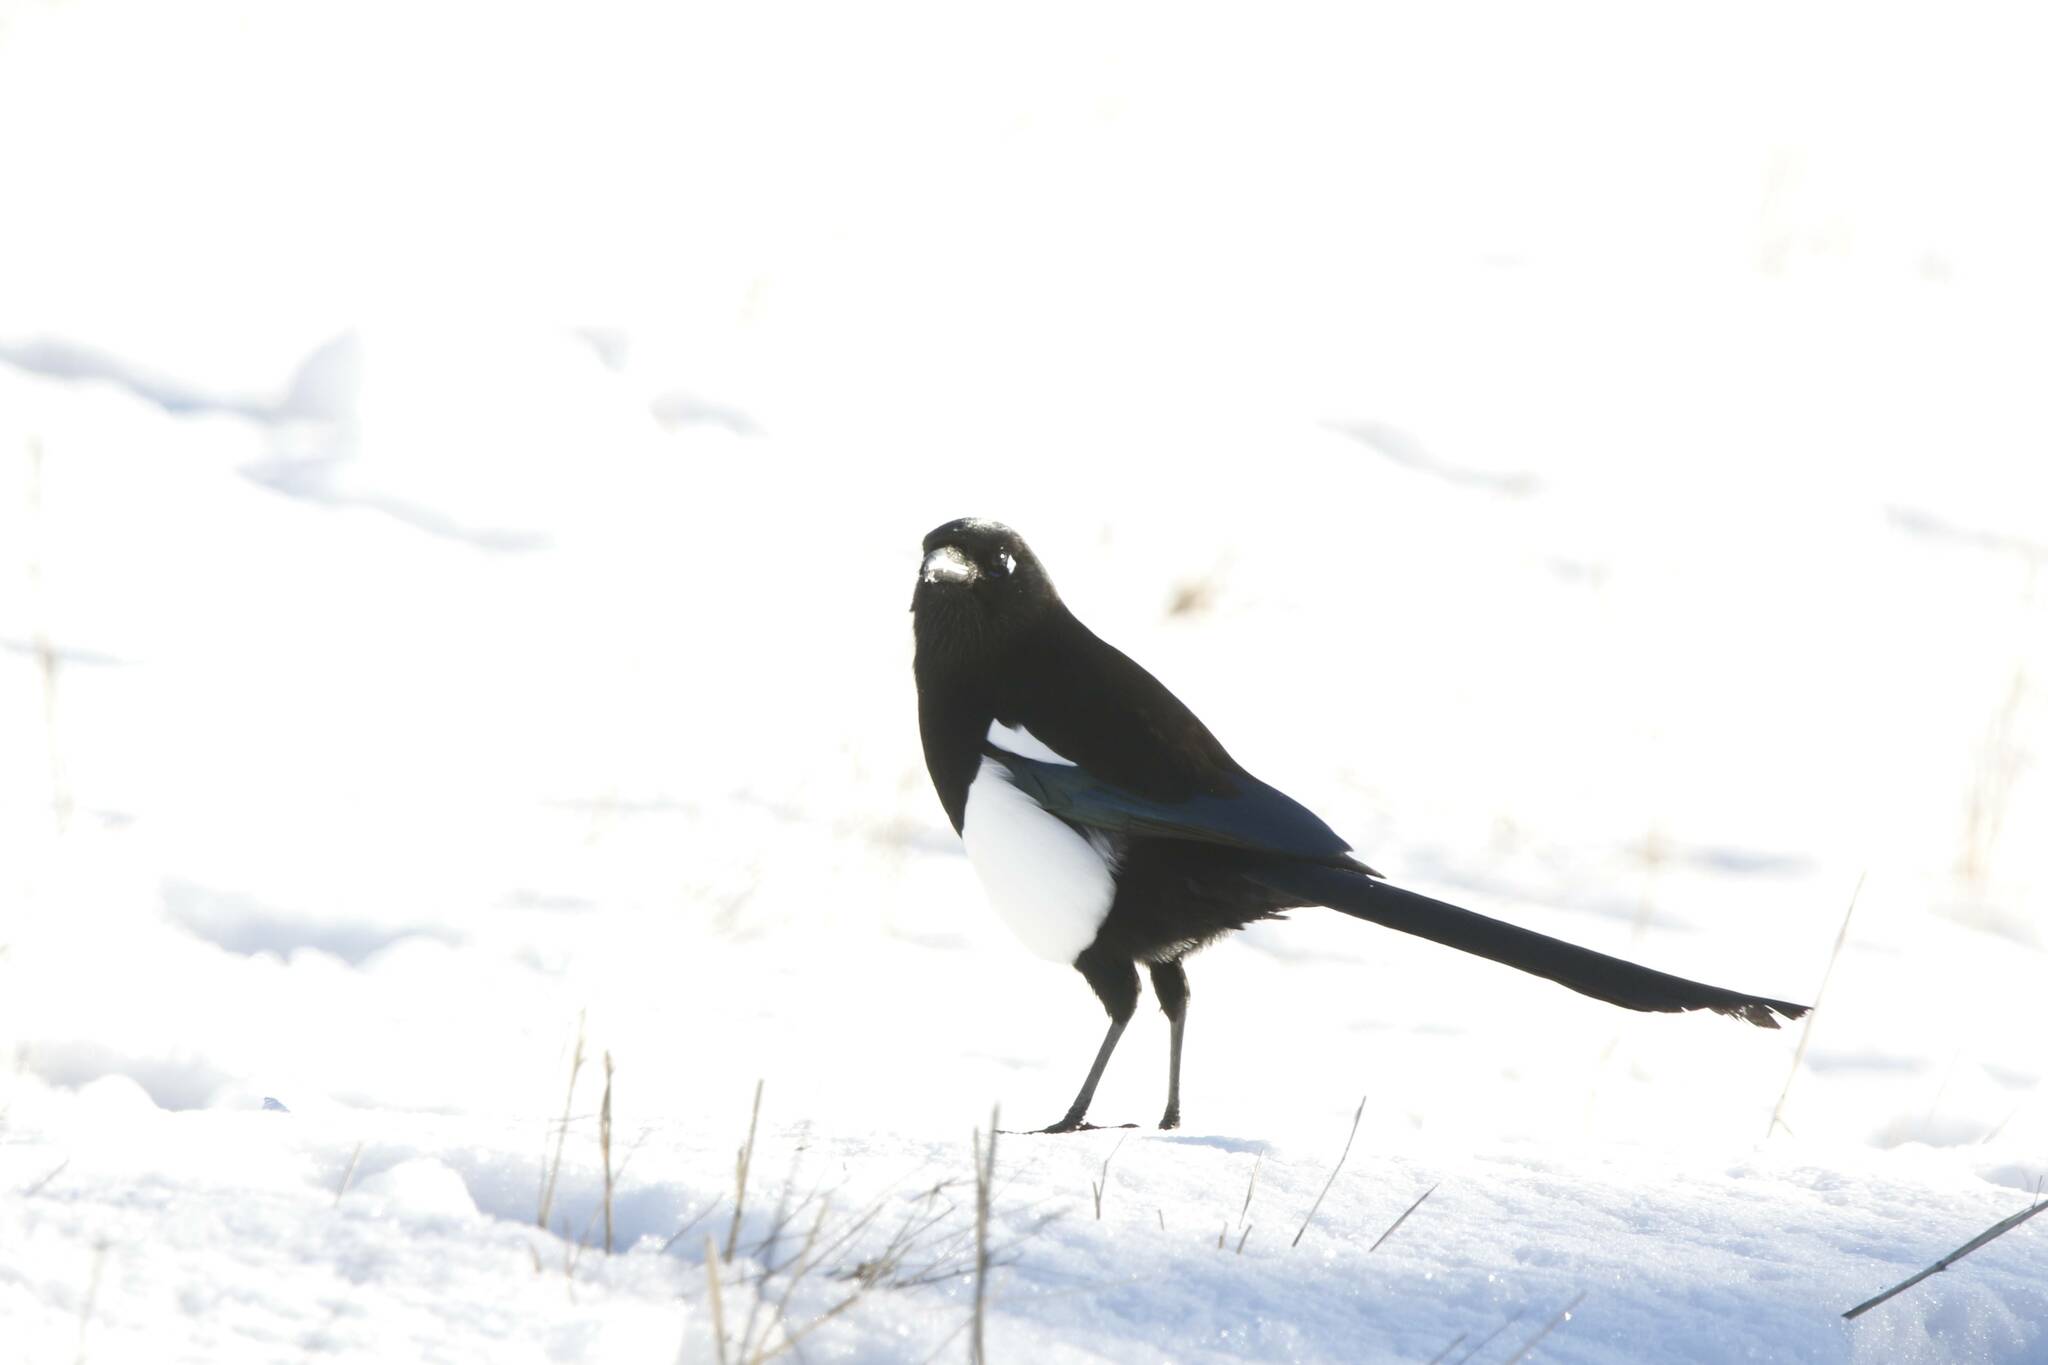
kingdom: Animalia
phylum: Chordata
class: Aves
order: Passeriformes
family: Corvidae
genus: Pica
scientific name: Pica mauritanica
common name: Maghreb magpie
